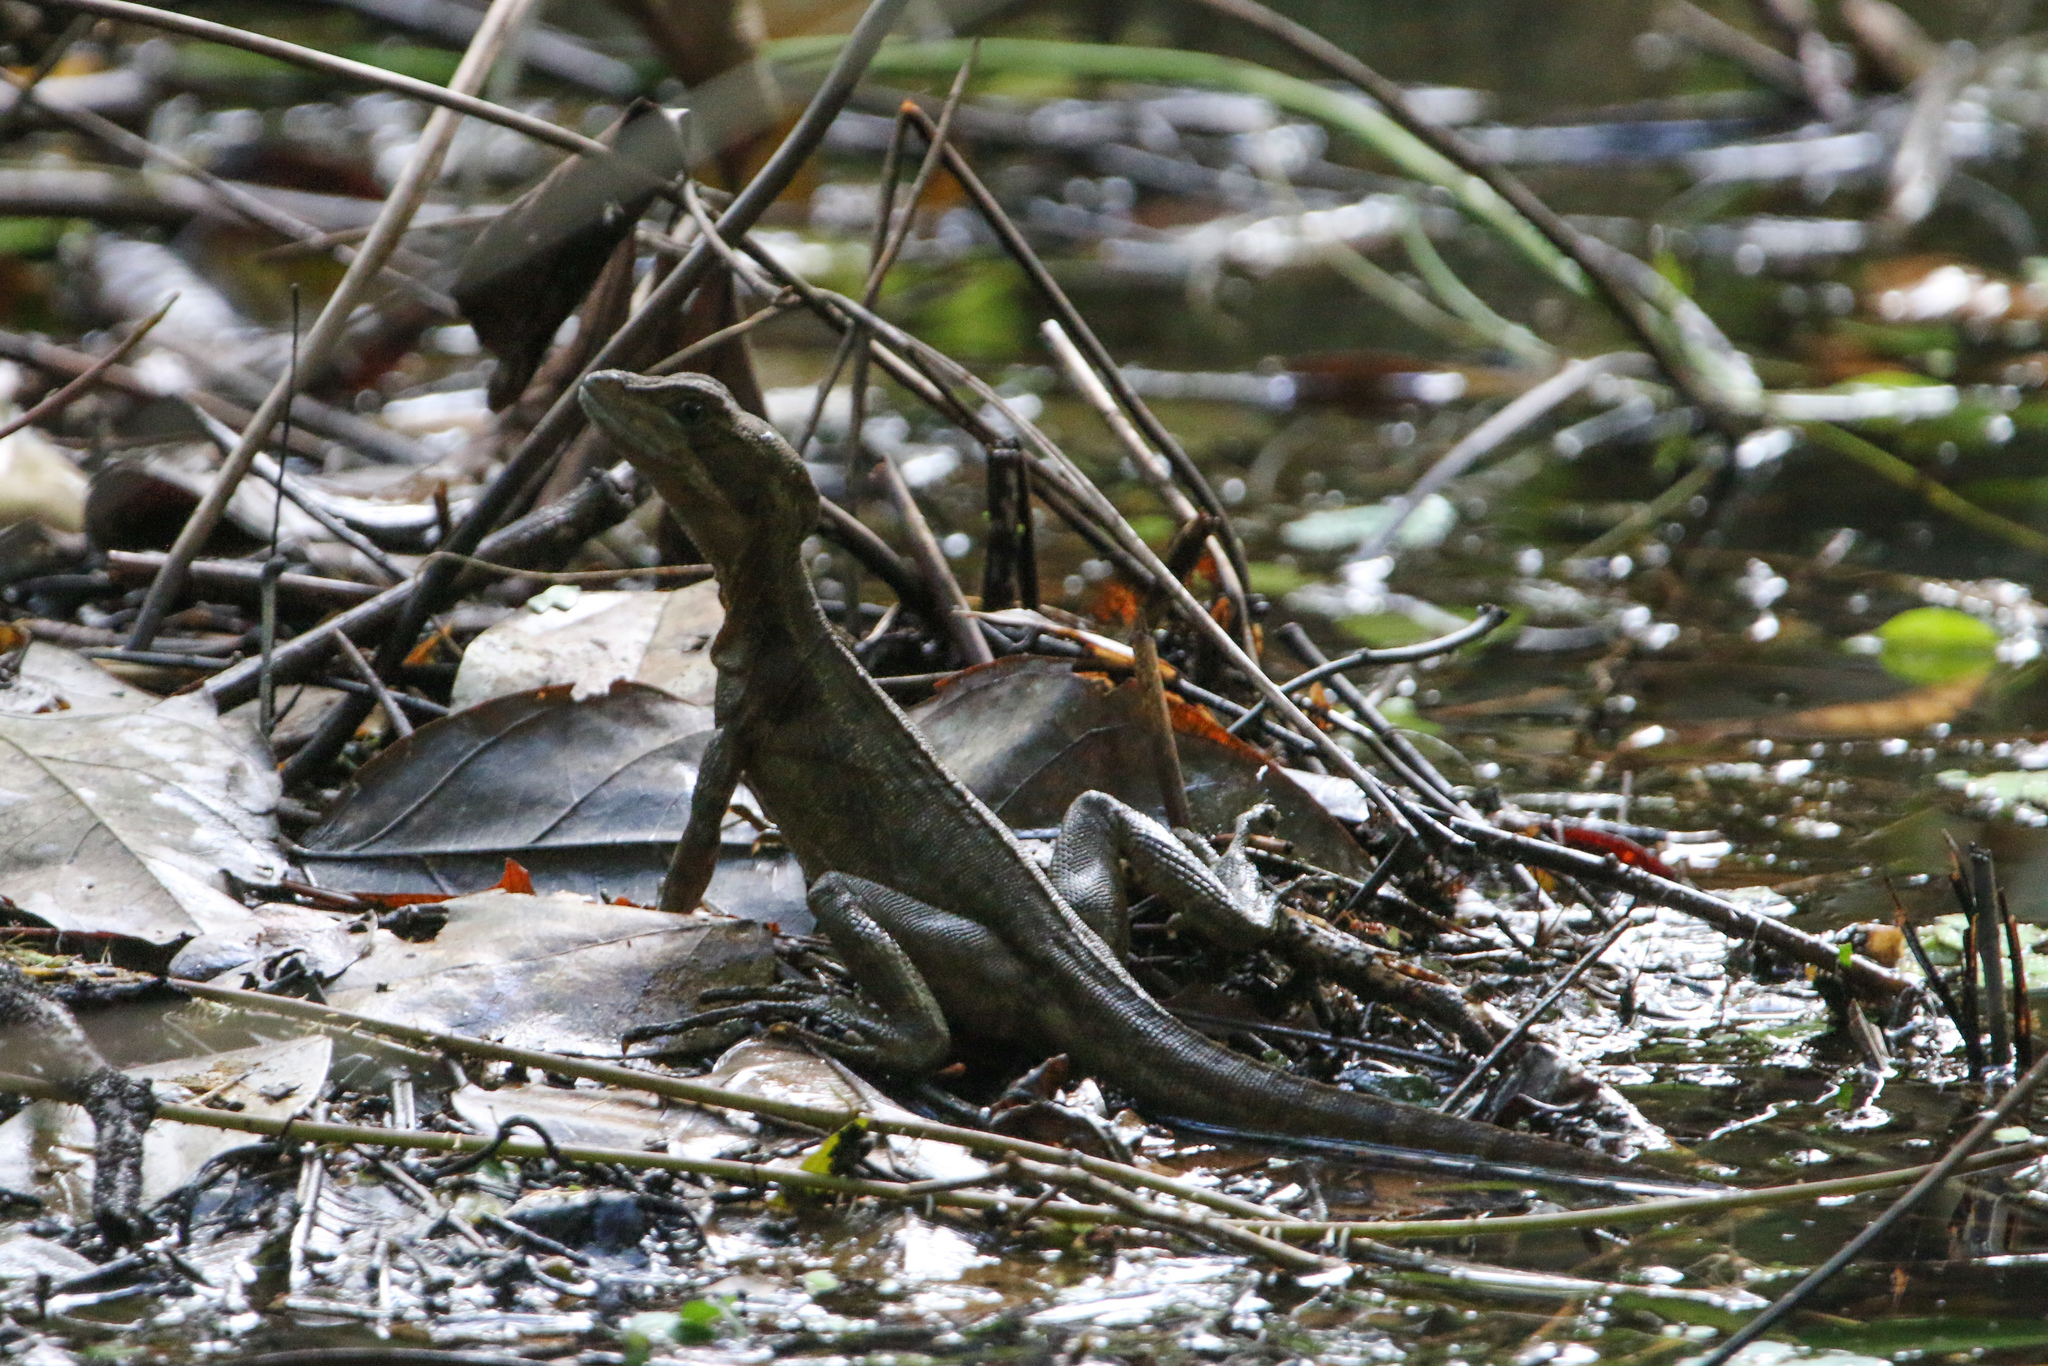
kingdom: Animalia
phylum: Chordata
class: Squamata
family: Corytophanidae
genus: Basiliscus
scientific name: Basiliscus basiliscus
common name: Common basilisk
